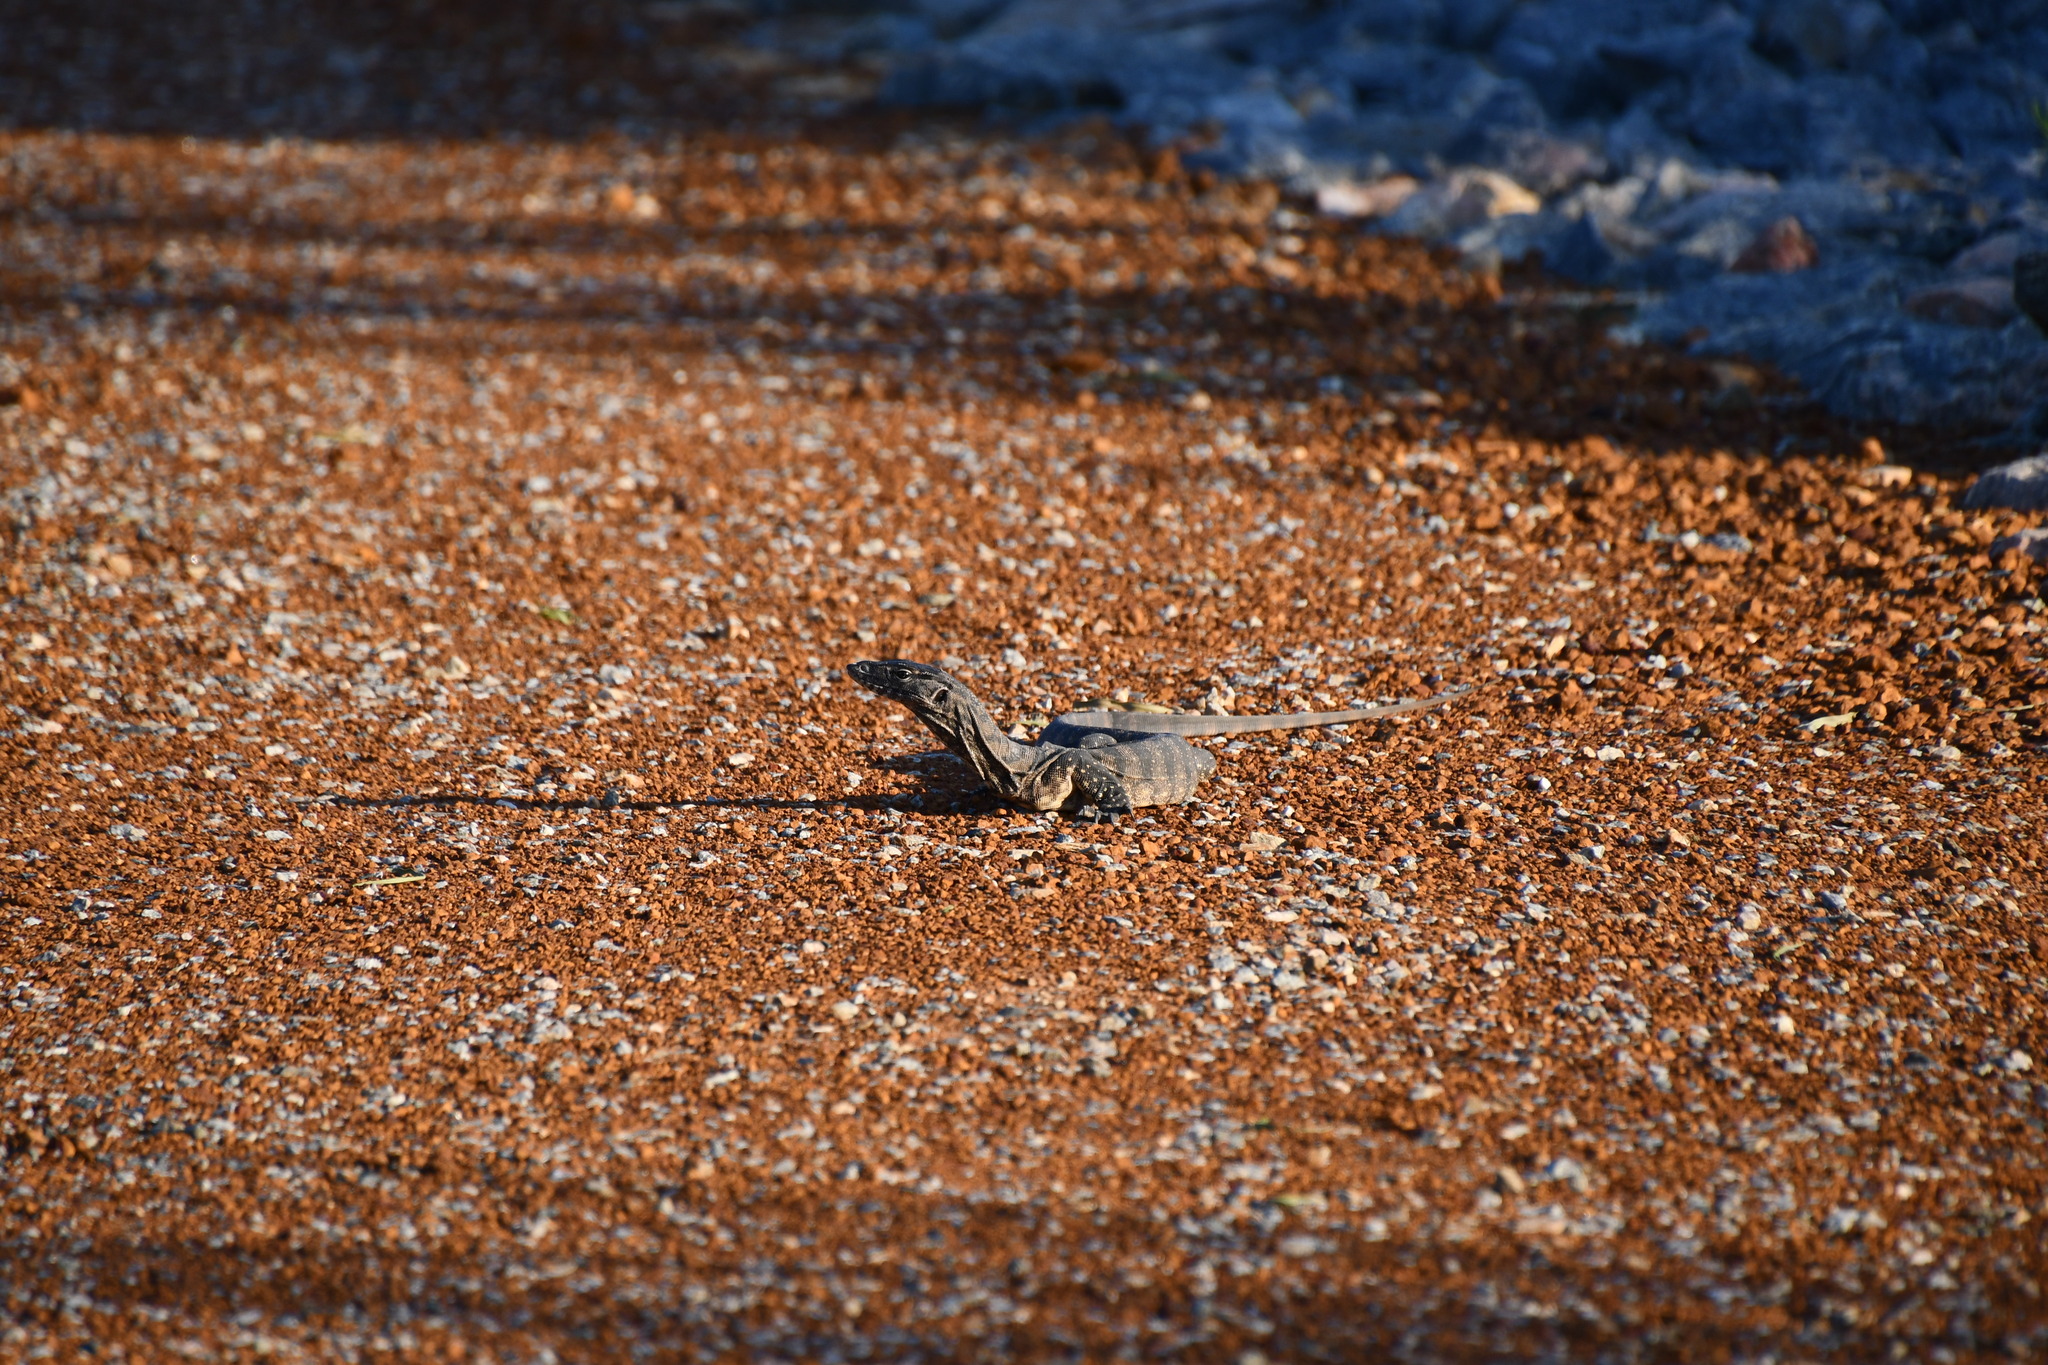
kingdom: Animalia
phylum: Chordata
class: Squamata
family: Varanidae
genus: Varanus
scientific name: Varanus rosenbergi
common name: Heath monitor
